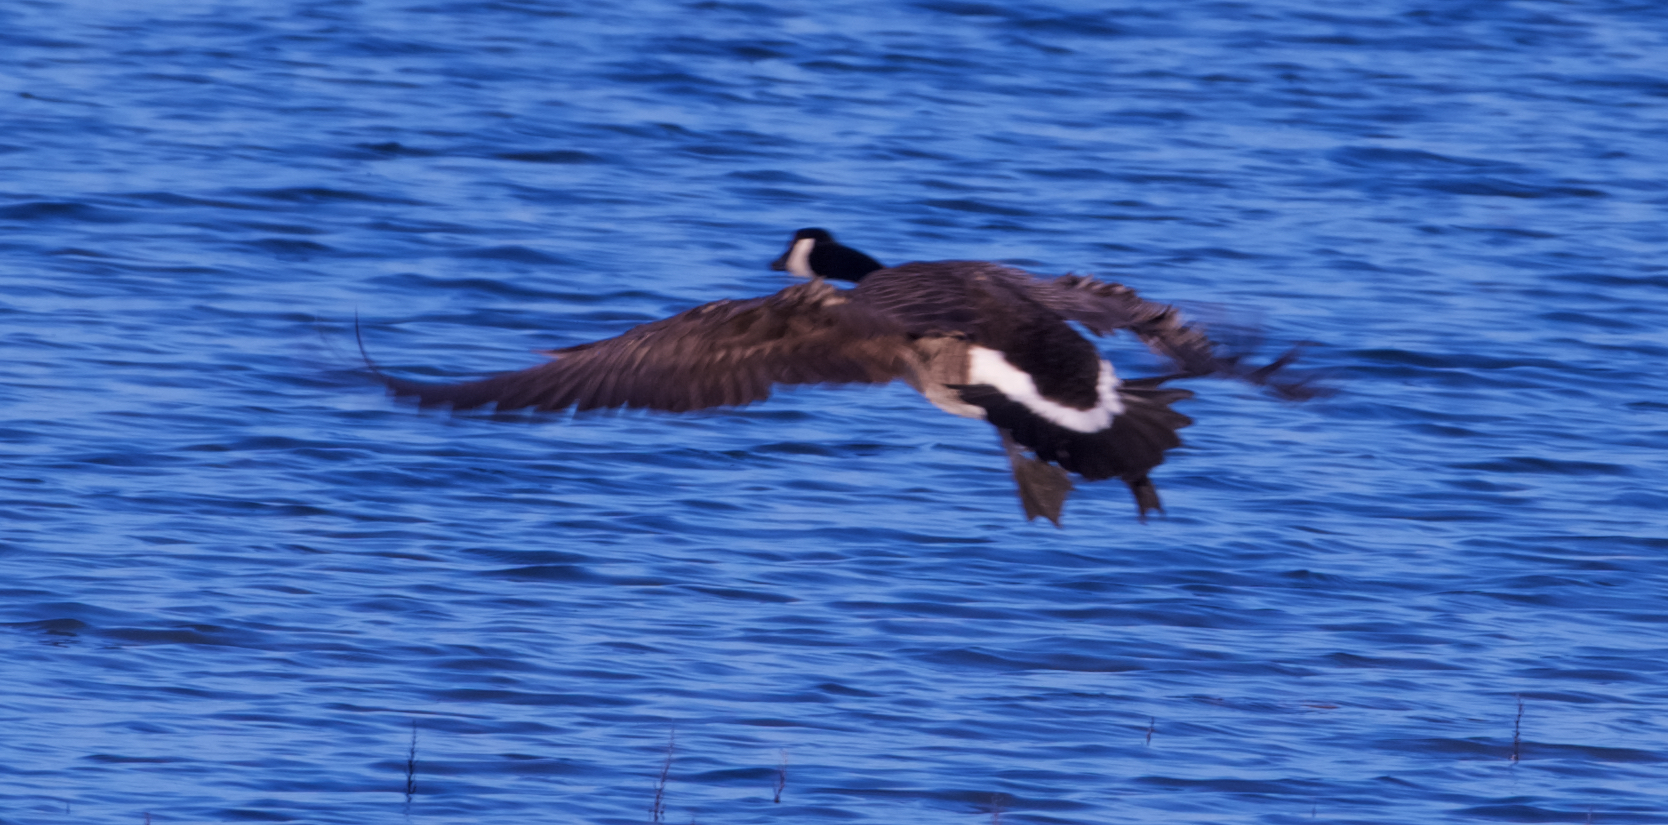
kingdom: Animalia
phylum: Chordata
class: Aves
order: Anseriformes
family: Anatidae
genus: Branta
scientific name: Branta canadensis
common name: Canada goose
